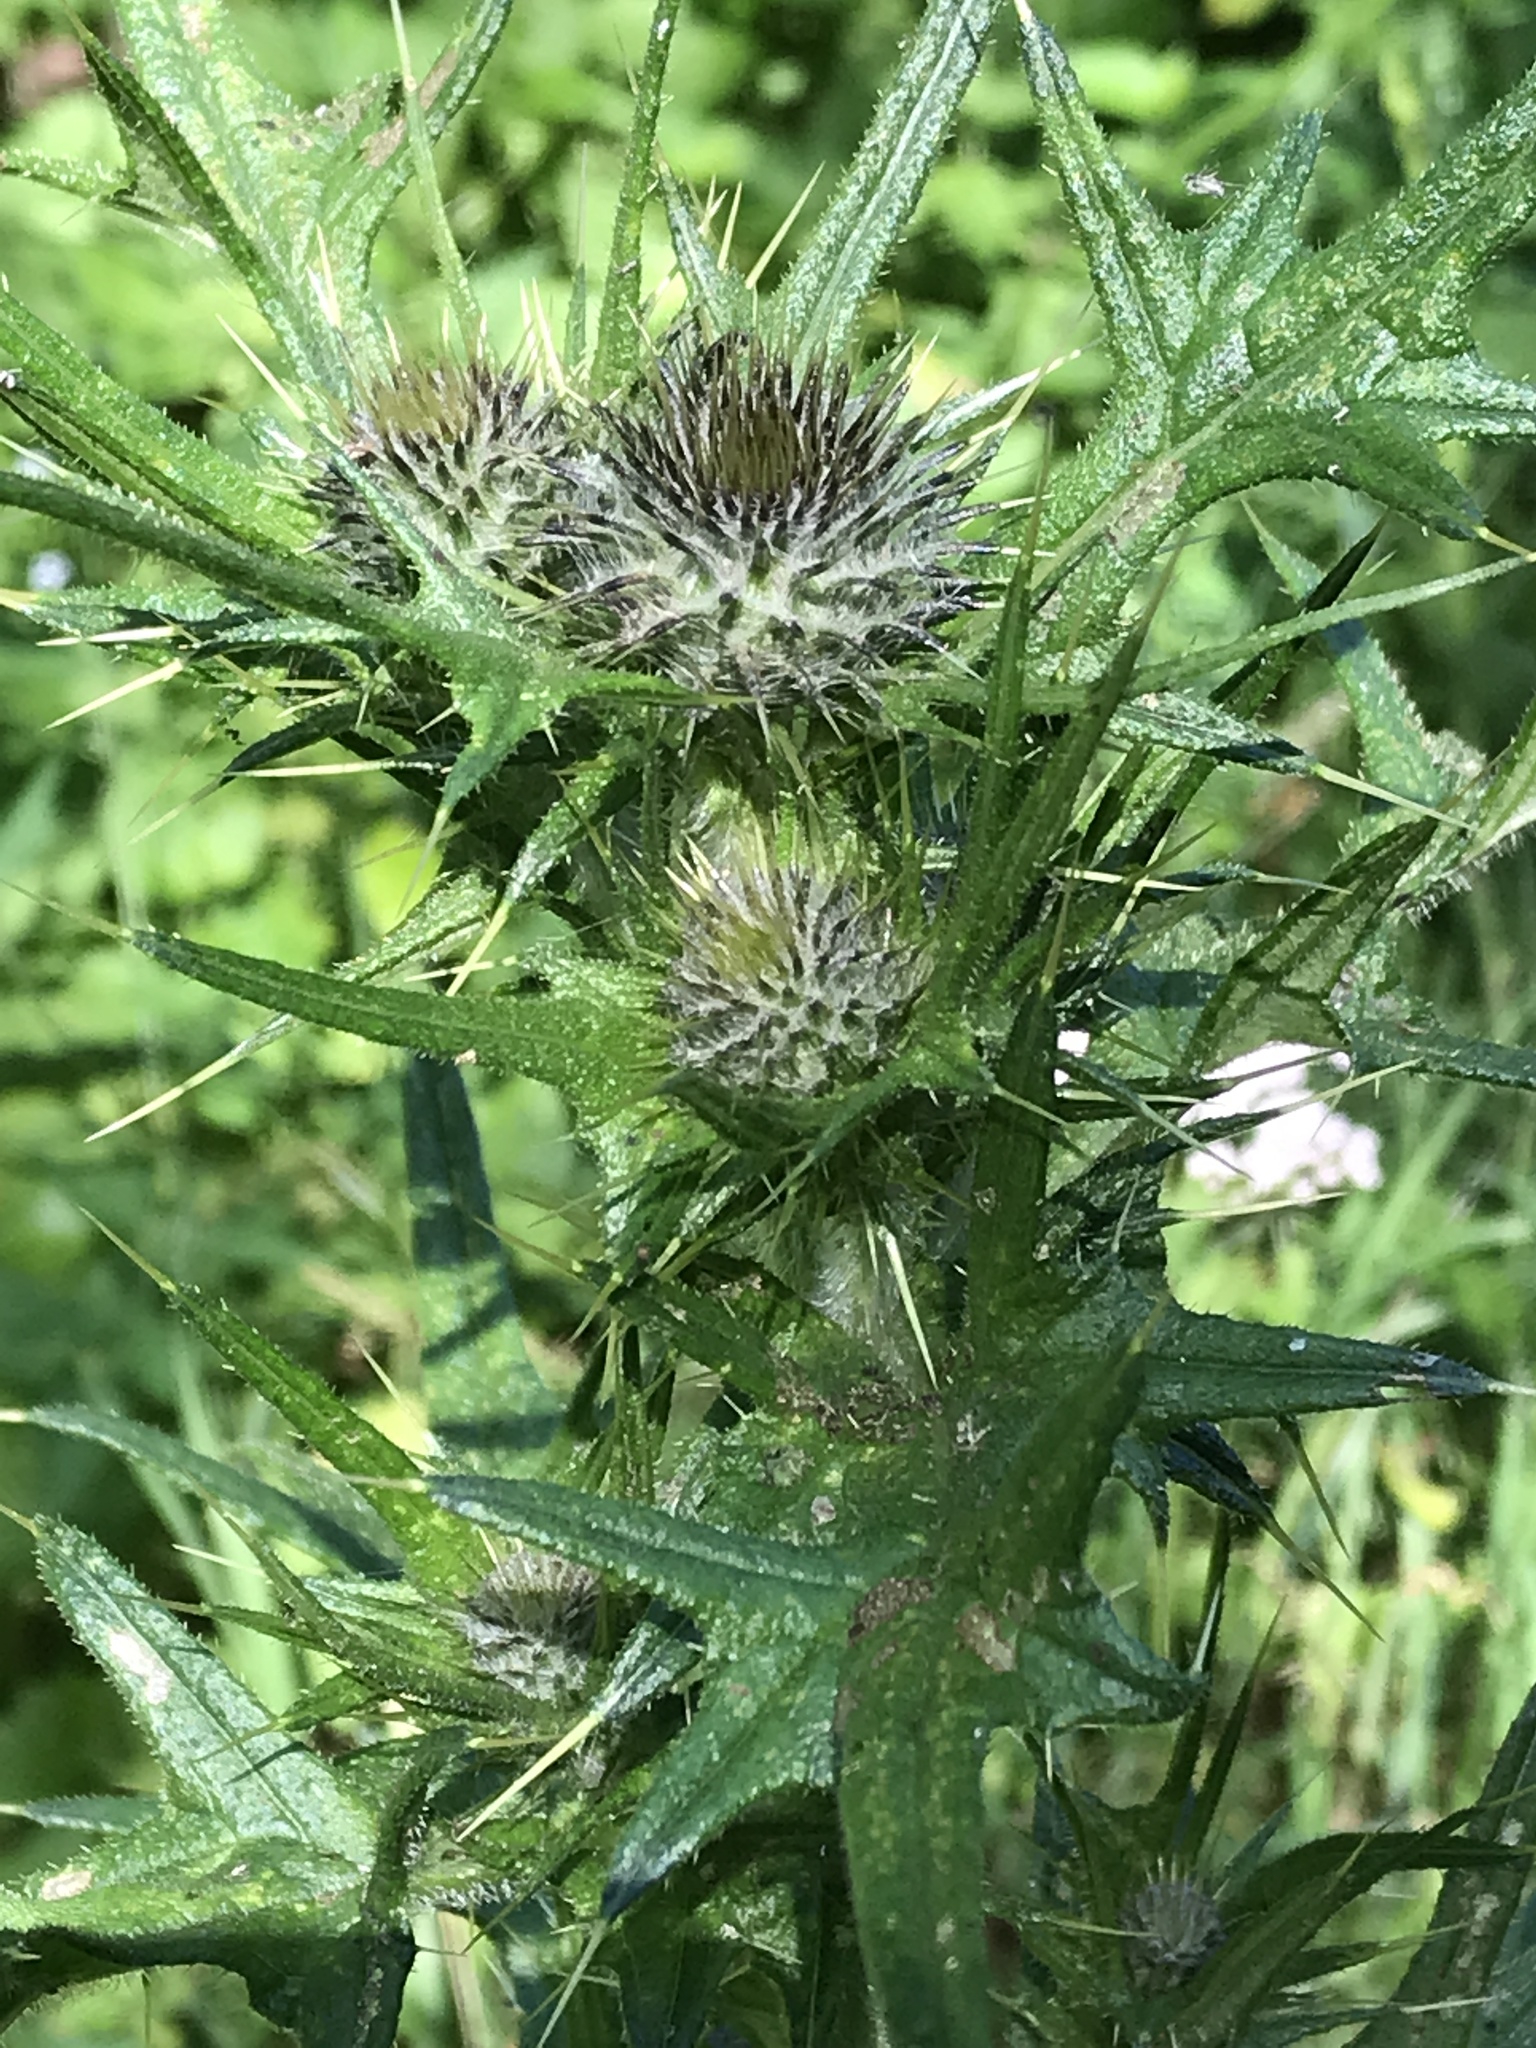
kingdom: Plantae
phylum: Tracheophyta
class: Magnoliopsida
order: Asterales
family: Asteraceae
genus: Cirsium
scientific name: Cirsium vulgare
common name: Bull thistle
